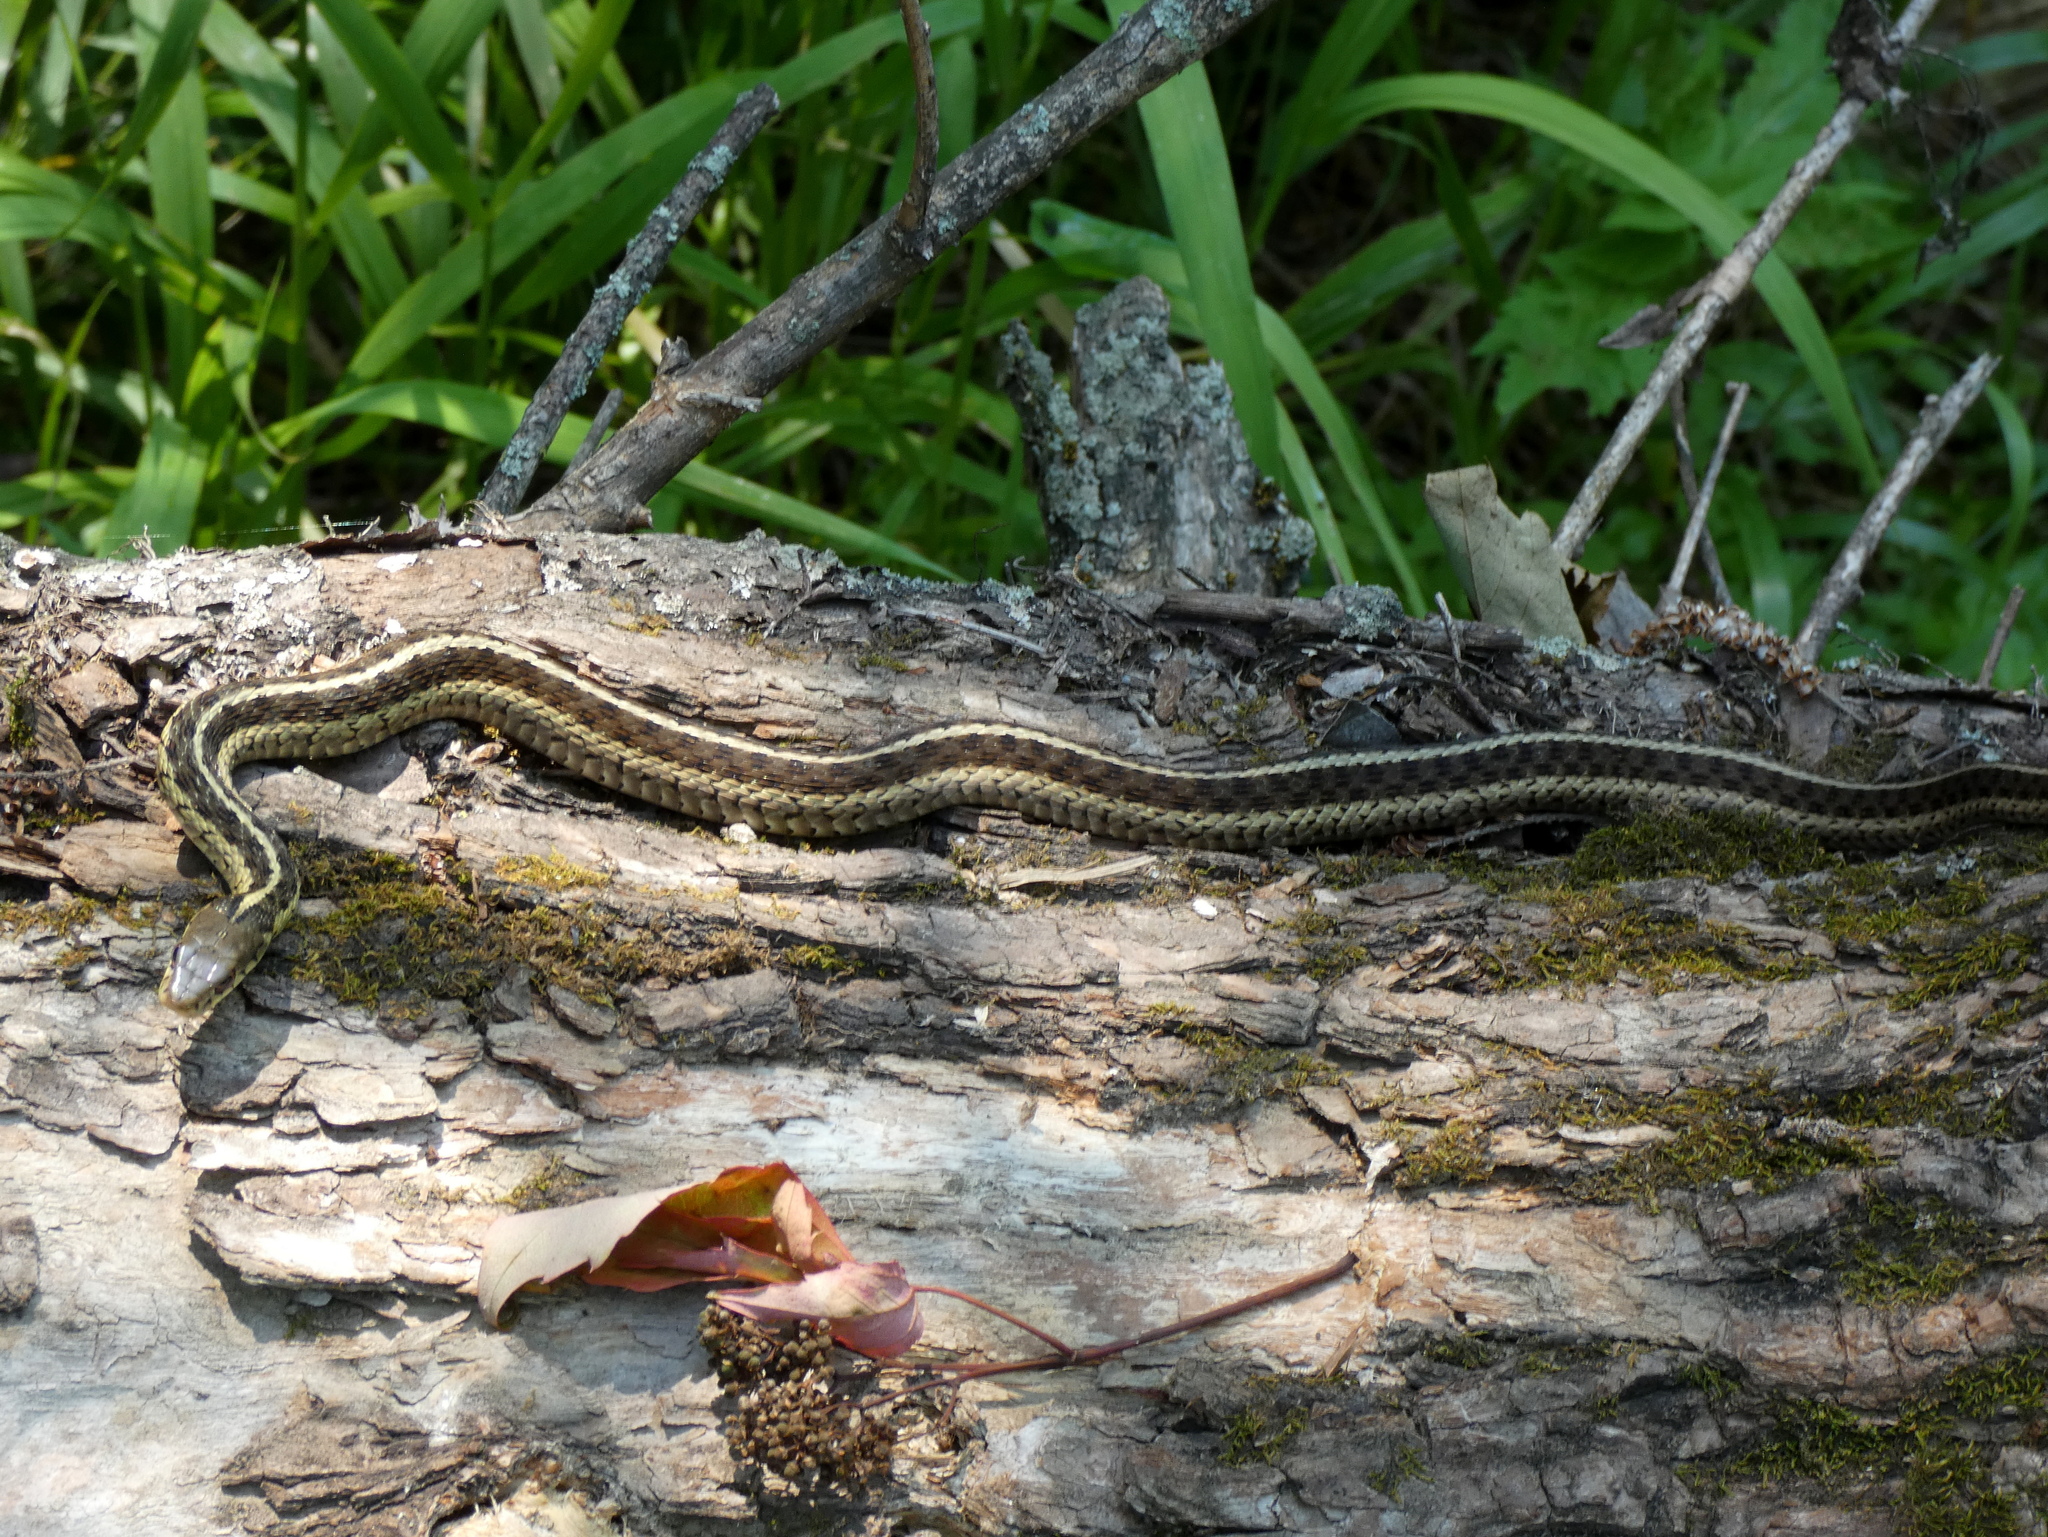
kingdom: Animalia
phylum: Chordata
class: Squamata
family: Colubridae
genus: Thamnophis
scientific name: Thamnophis sirtalis
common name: Common garter snake
